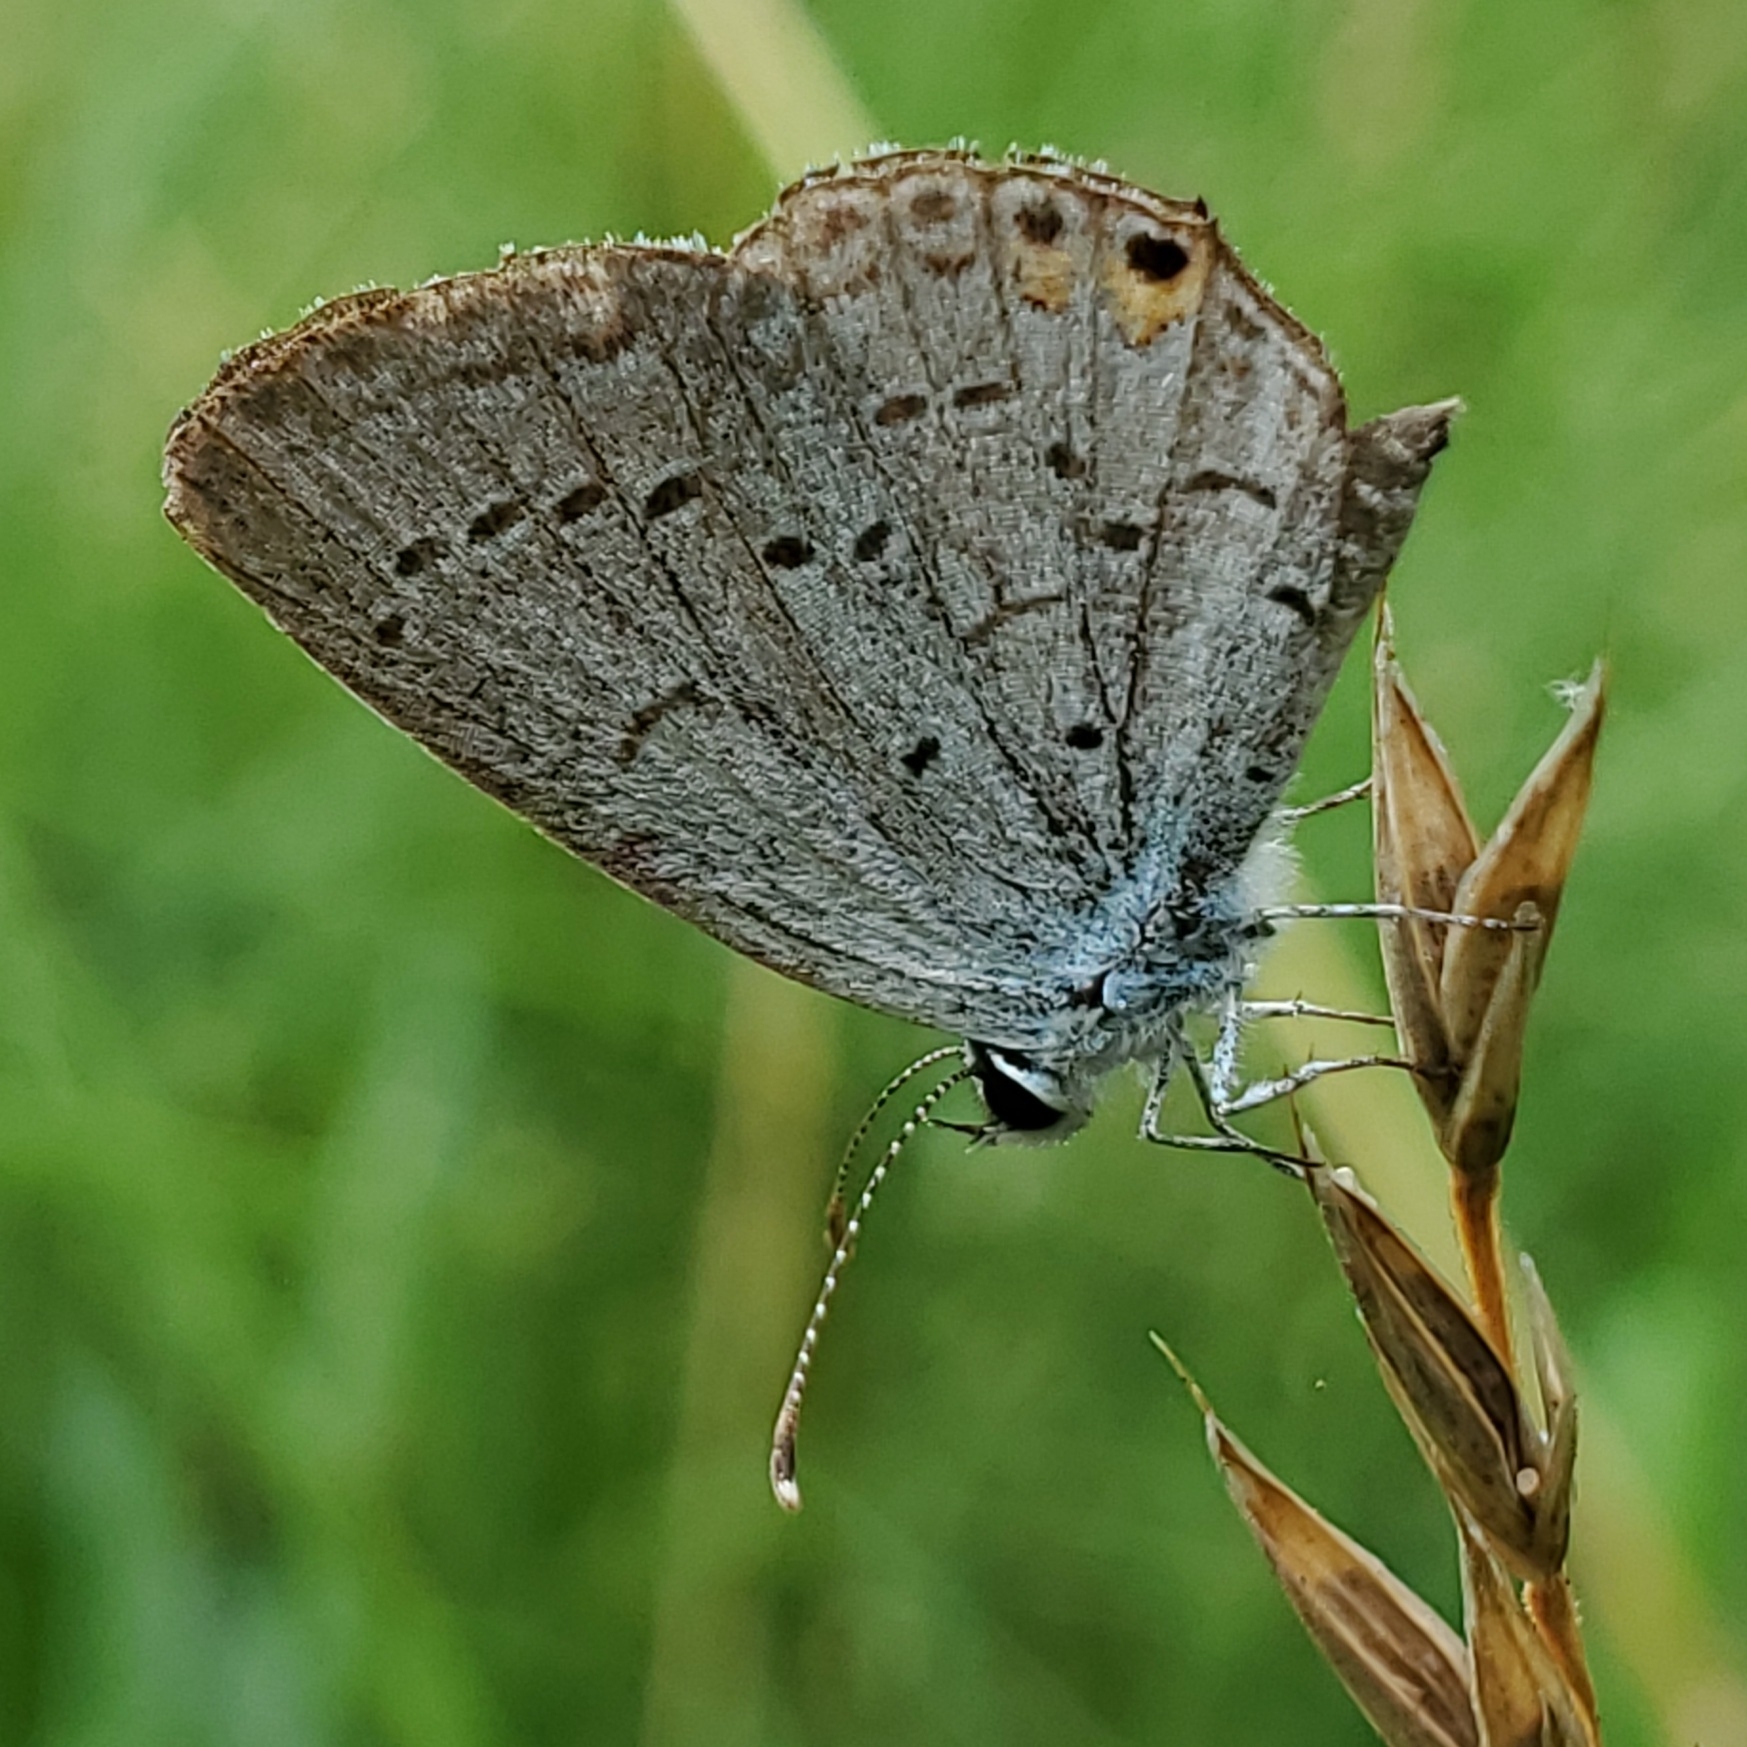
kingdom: Animalia
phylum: Arthropoda
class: Insecta
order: Lepidoptera
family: Lycaenidae
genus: Elkalyce
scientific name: Elkalyce comyntas
